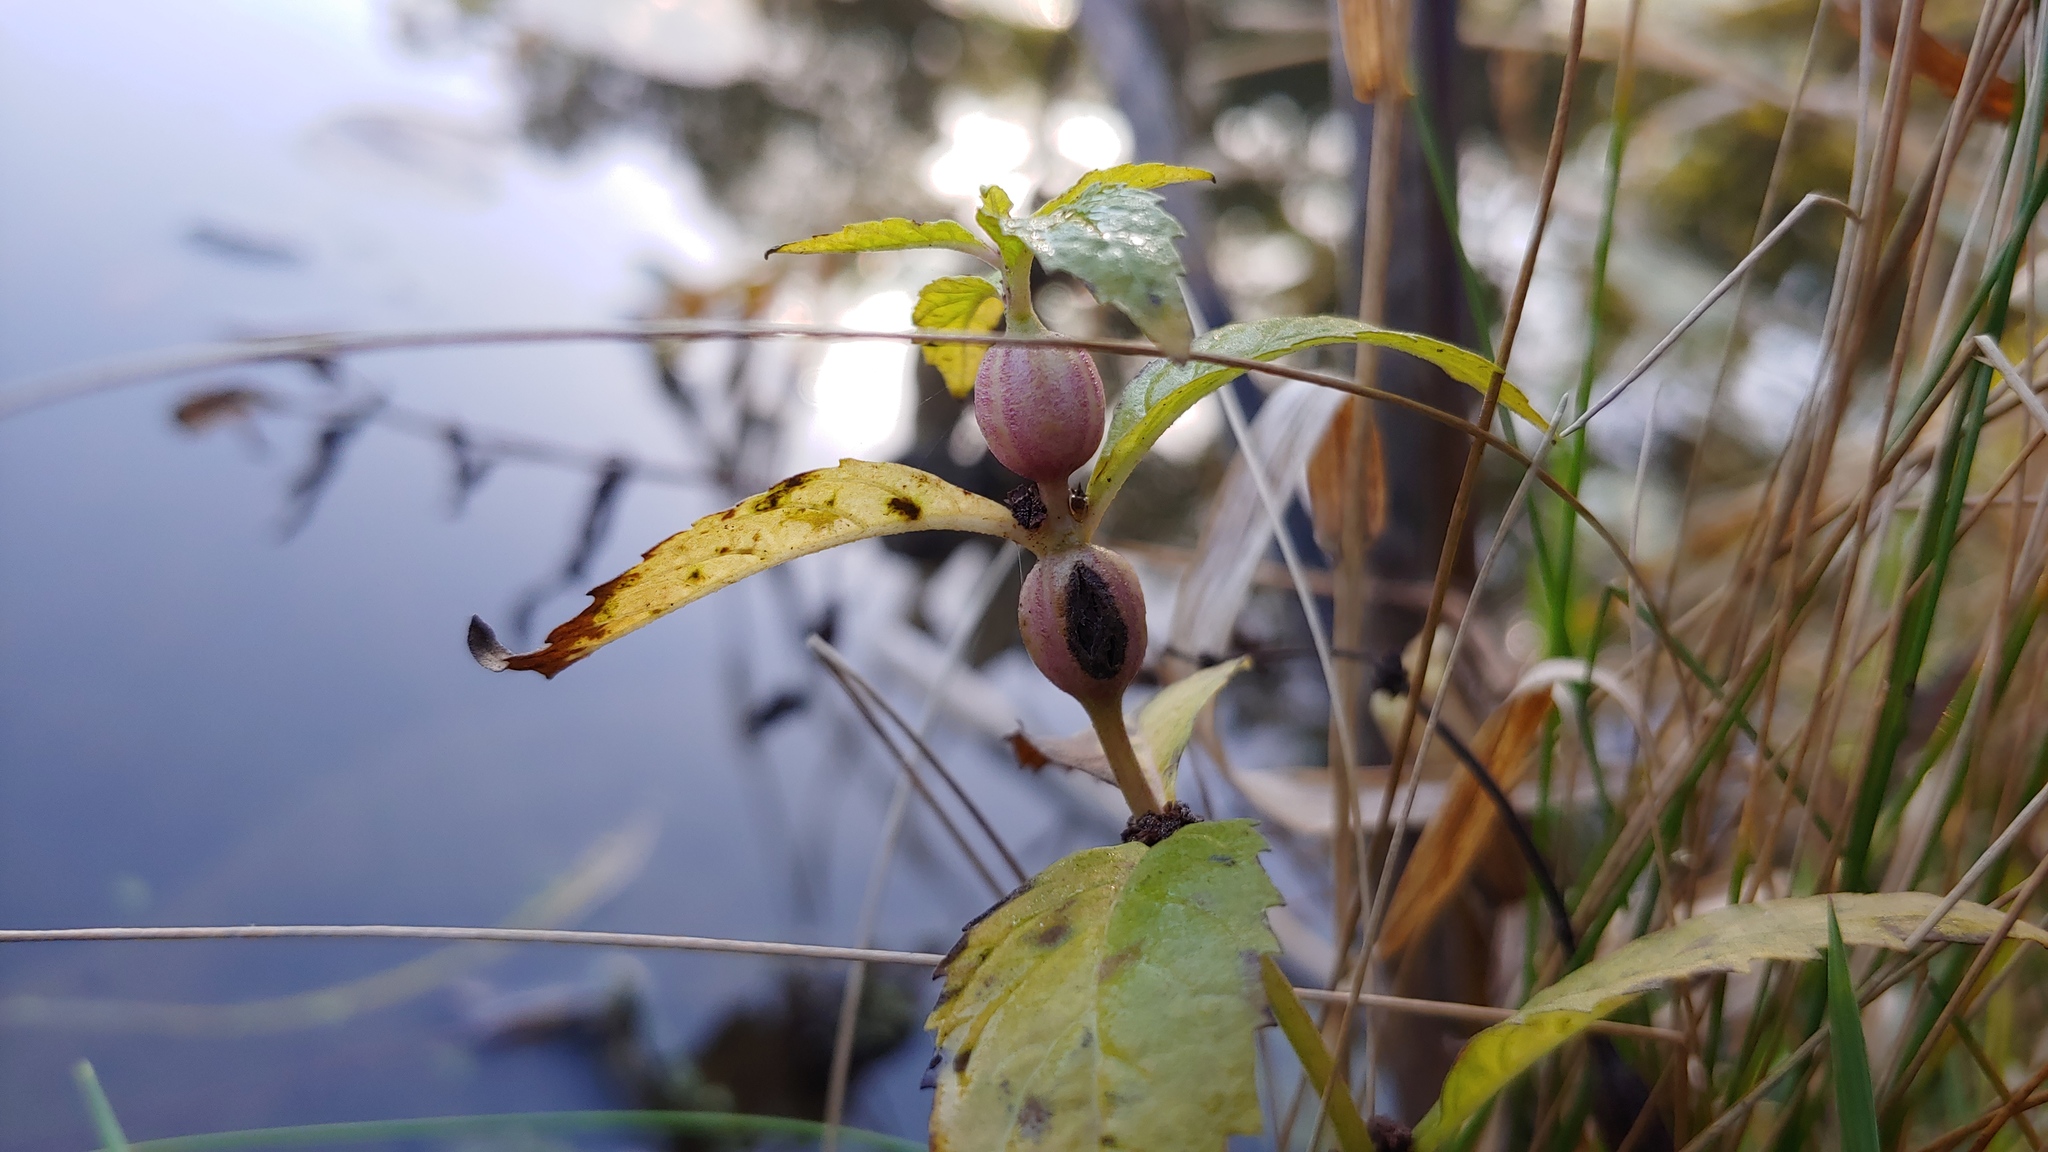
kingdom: Animalia
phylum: Arthropoda
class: Insecta
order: Diptera
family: Cecidomyiidae
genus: Neolasioptera
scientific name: Neolasioptera lycopi
